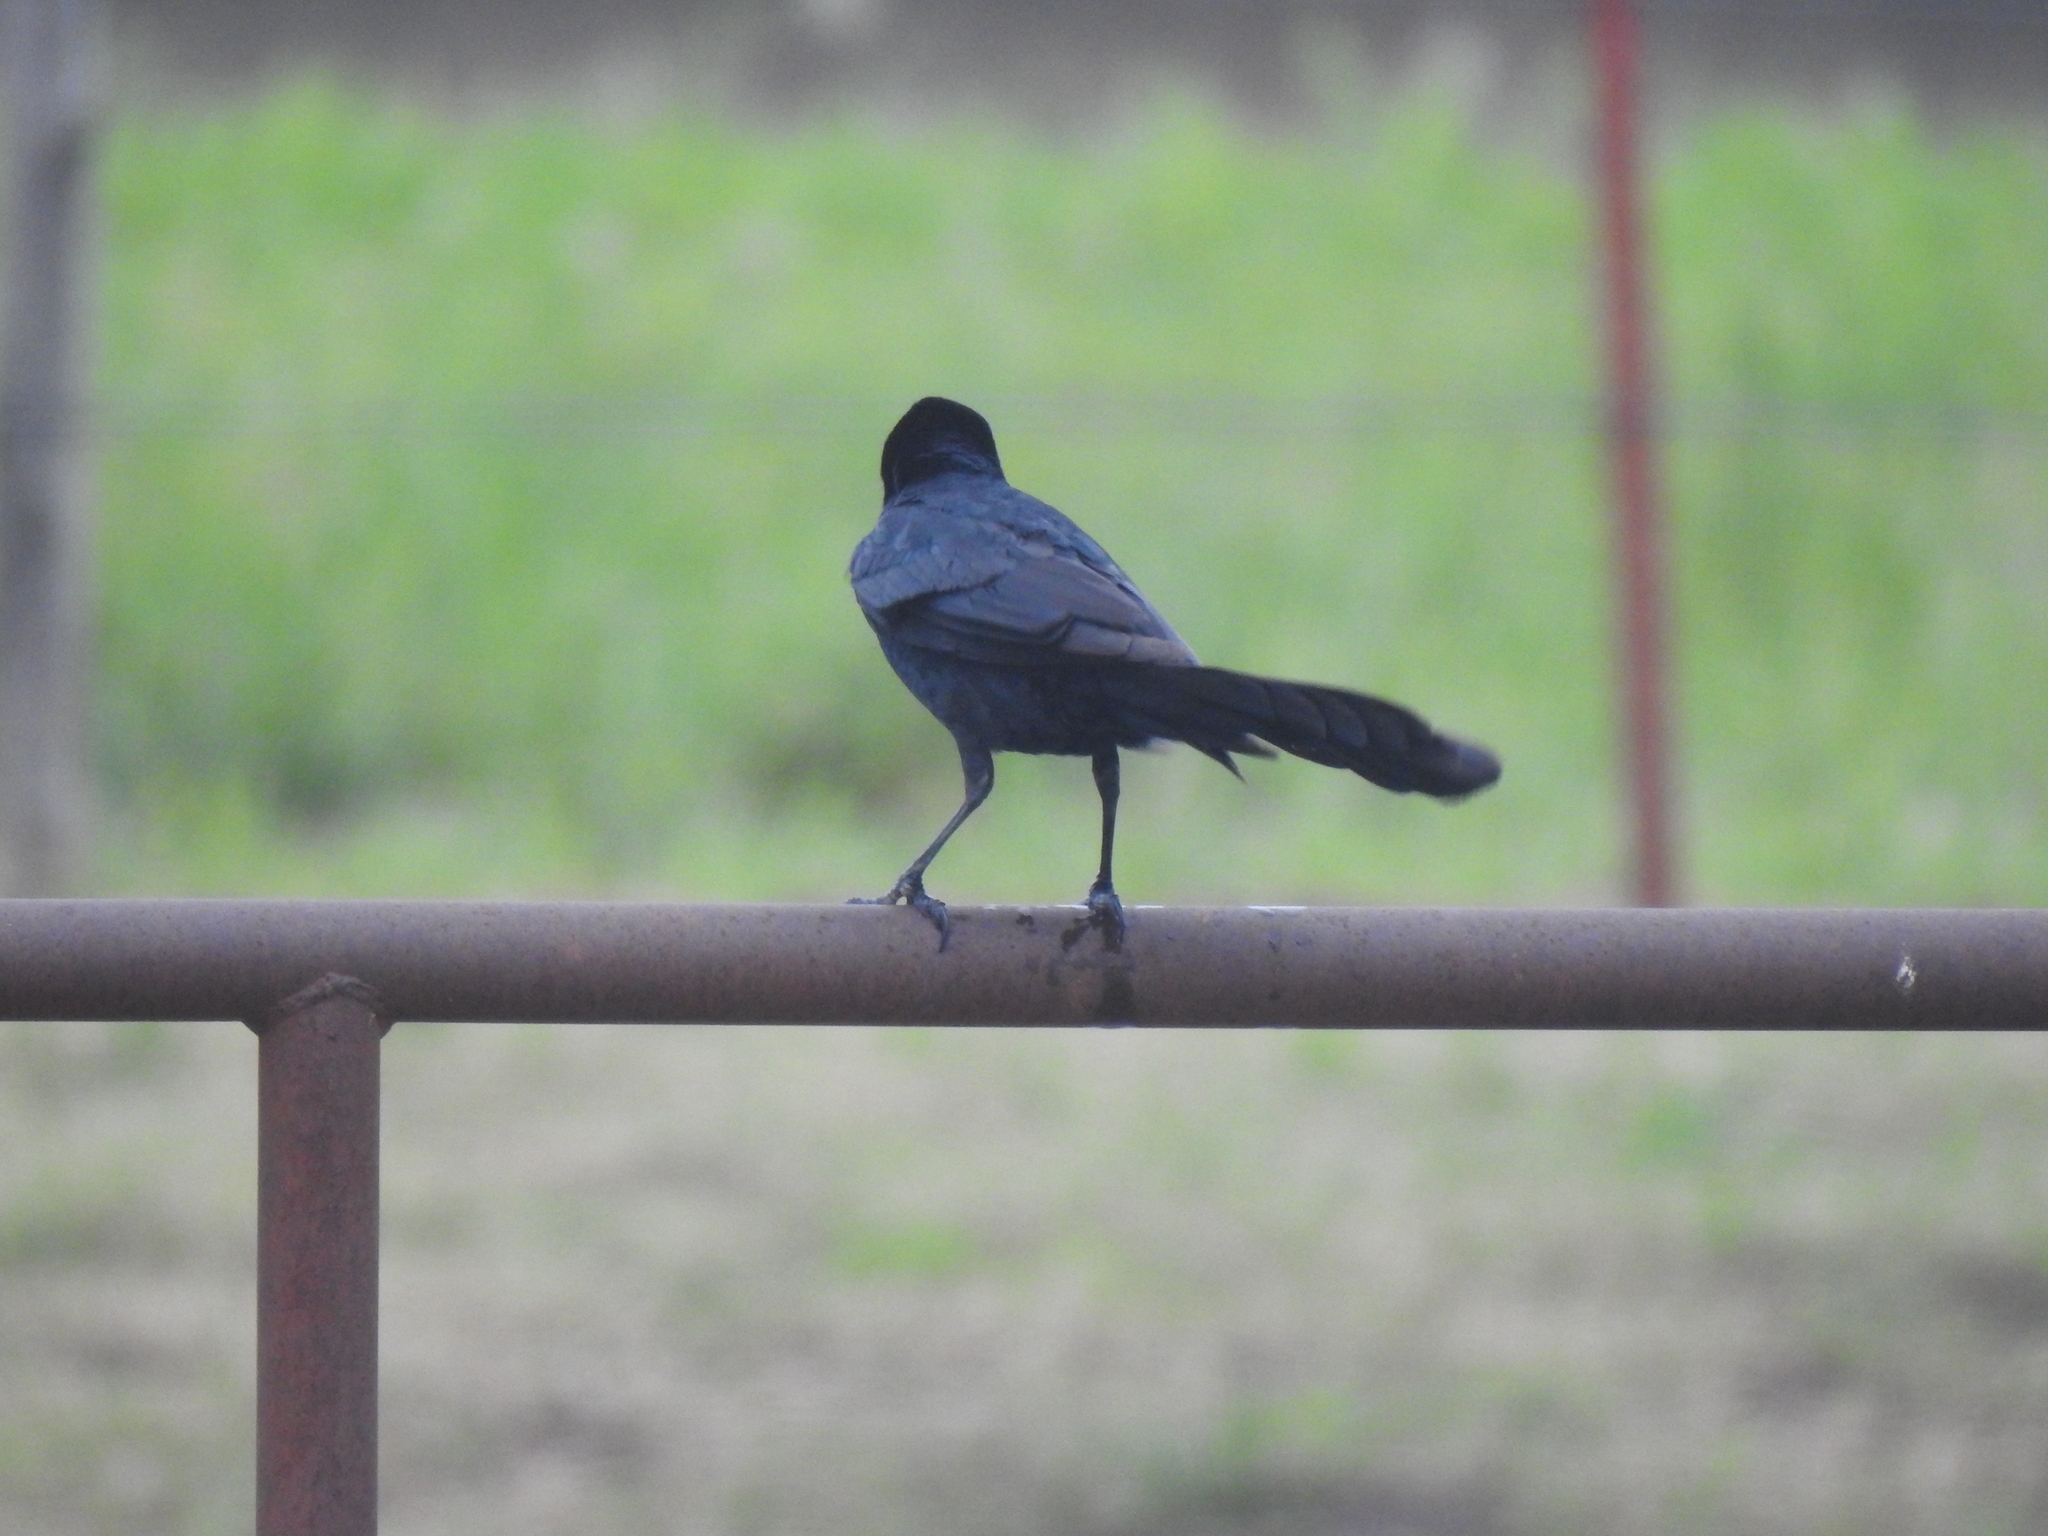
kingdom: Animalia
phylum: Chordata
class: Aves
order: Passeriformes
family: Icteridae
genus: Quiscalus
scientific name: Quiscalus mexicanus
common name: Great-tailed grackle
